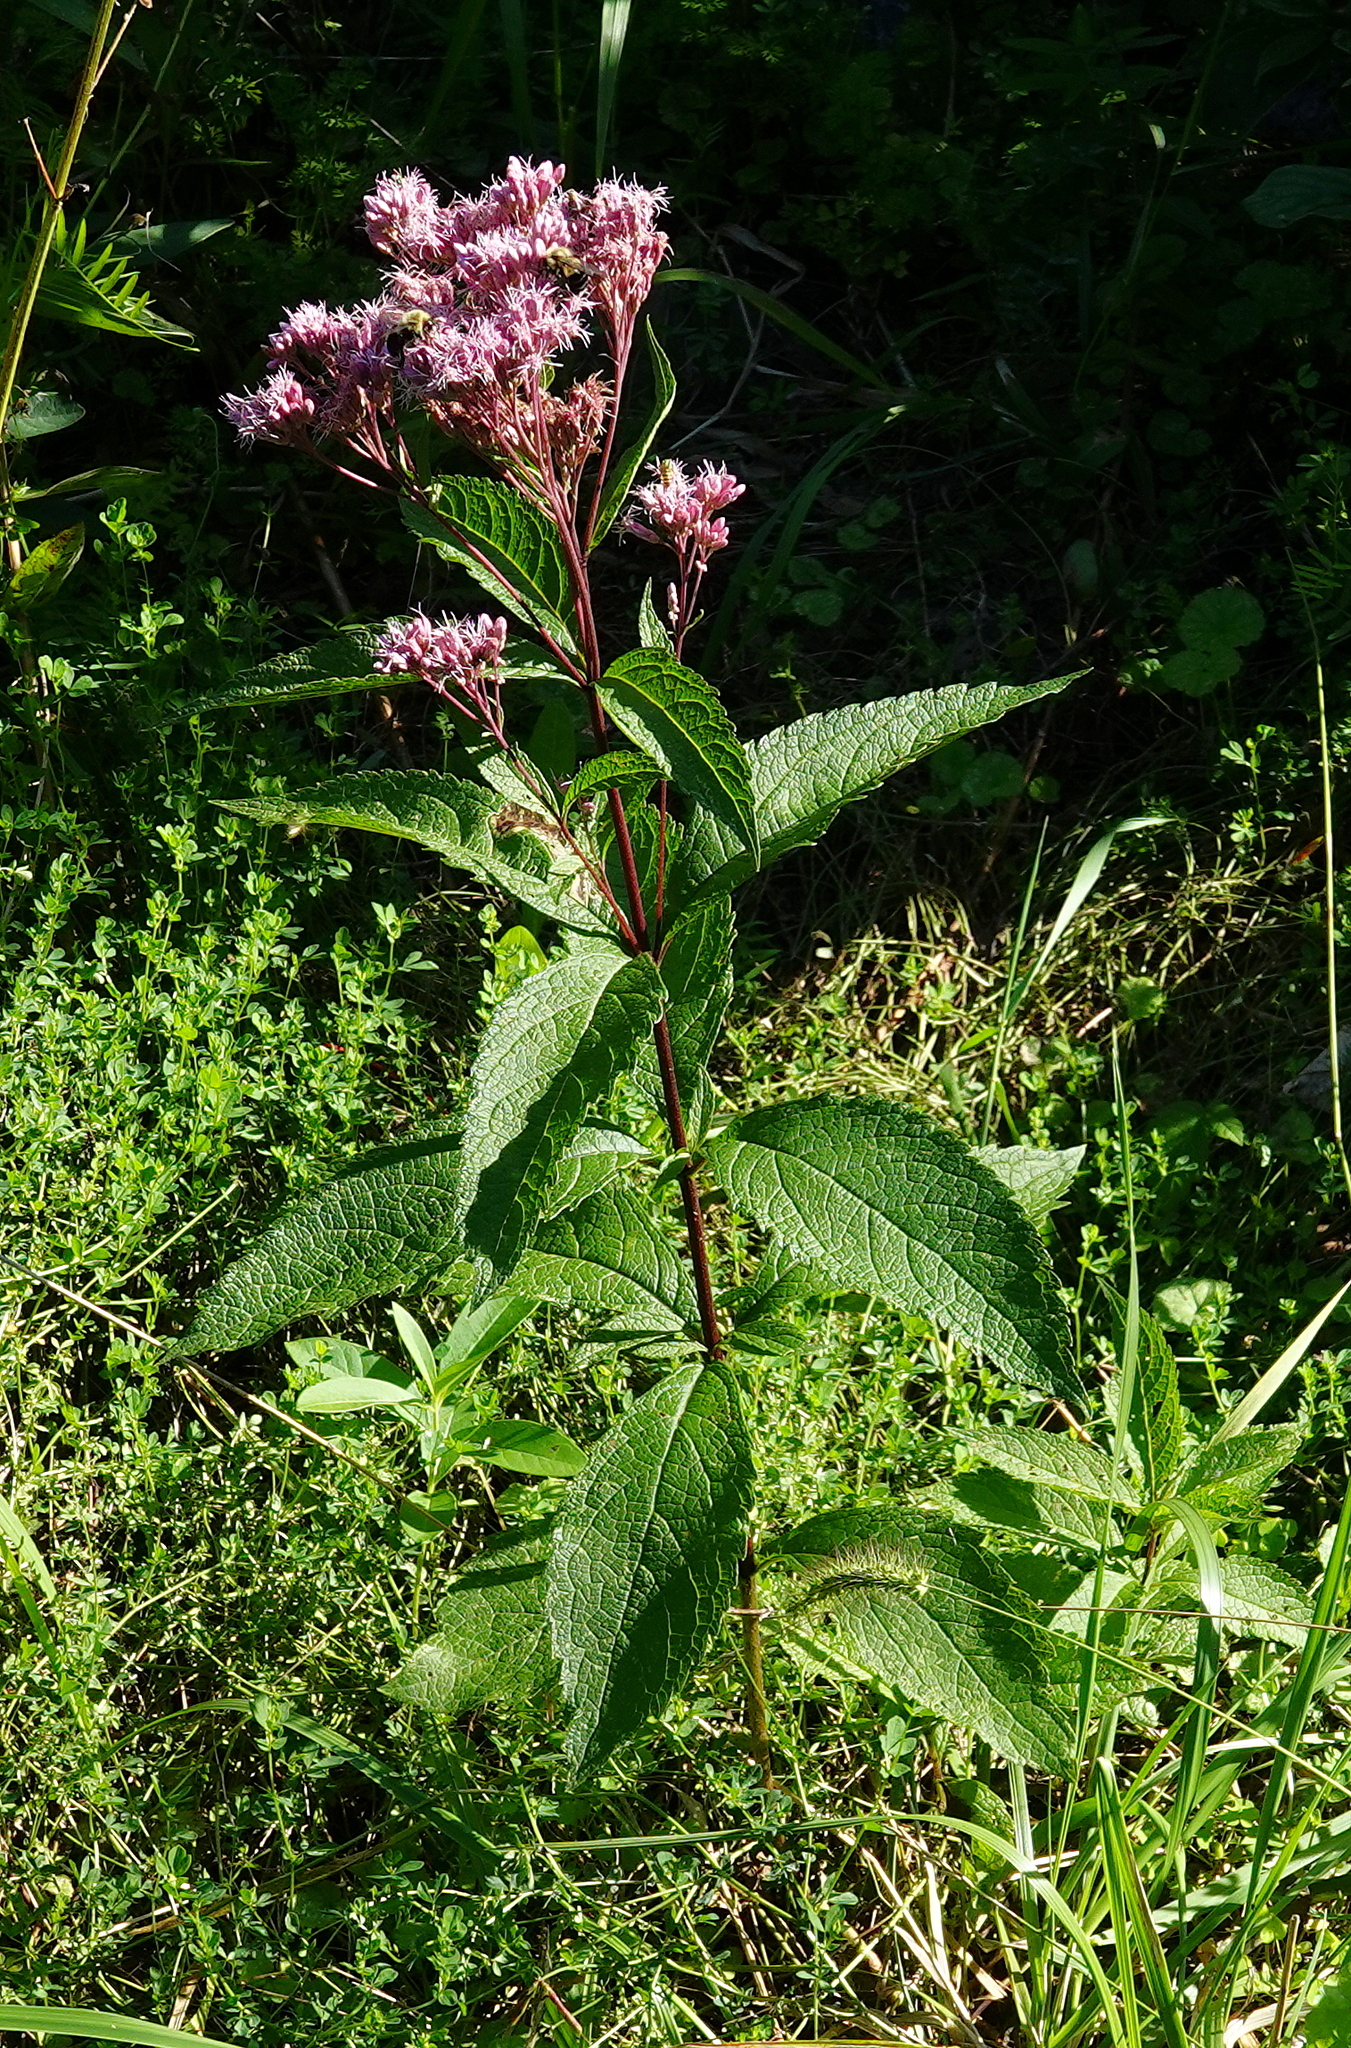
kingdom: Plantae
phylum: Tracheophyta
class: Magnoliopsida
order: Asterales
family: Asteraceae
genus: Eutrochium
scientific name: Eutrochium maculatum
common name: Spotted joe pye weed
